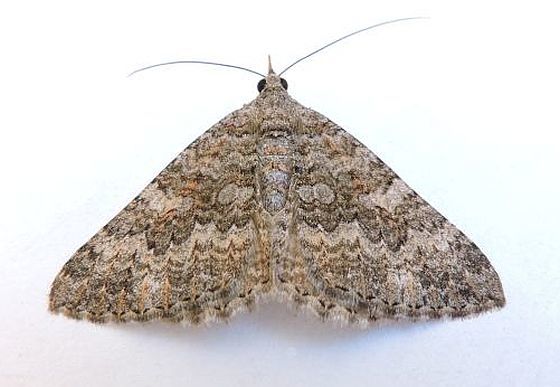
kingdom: Animalia
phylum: Arthropoda
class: Insecta
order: Lepidoptera
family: Geometridae
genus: Archirhoe
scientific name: Archirhoe neomexicana
